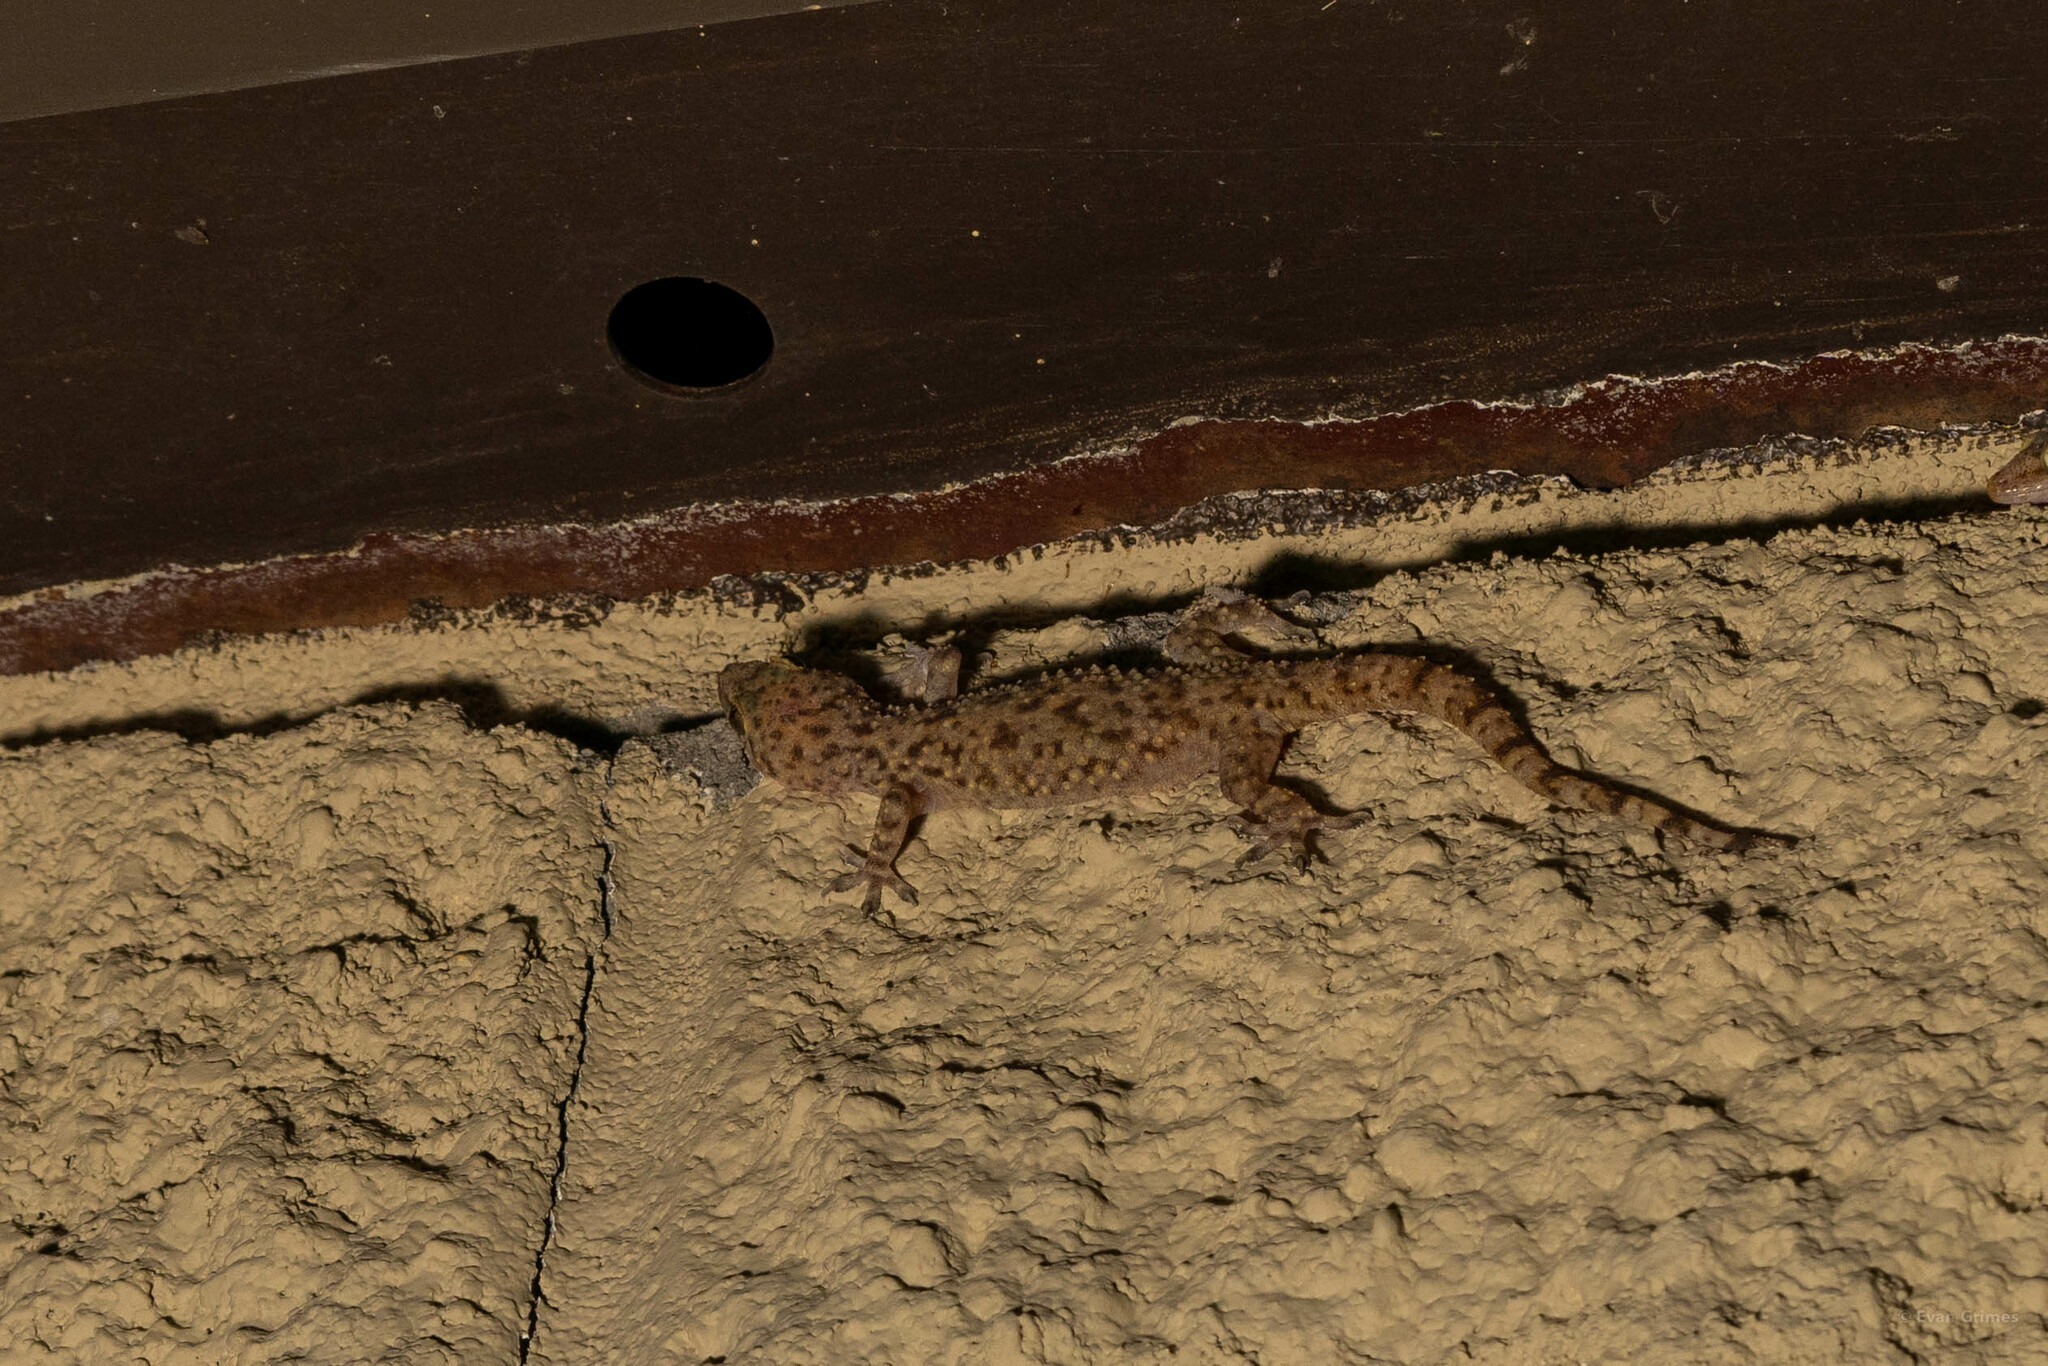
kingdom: Animalia
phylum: Chordata
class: Squamata
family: Gekkonidae
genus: Hemidactylus
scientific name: Hemidactylus turcicus
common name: Turkish gecko
